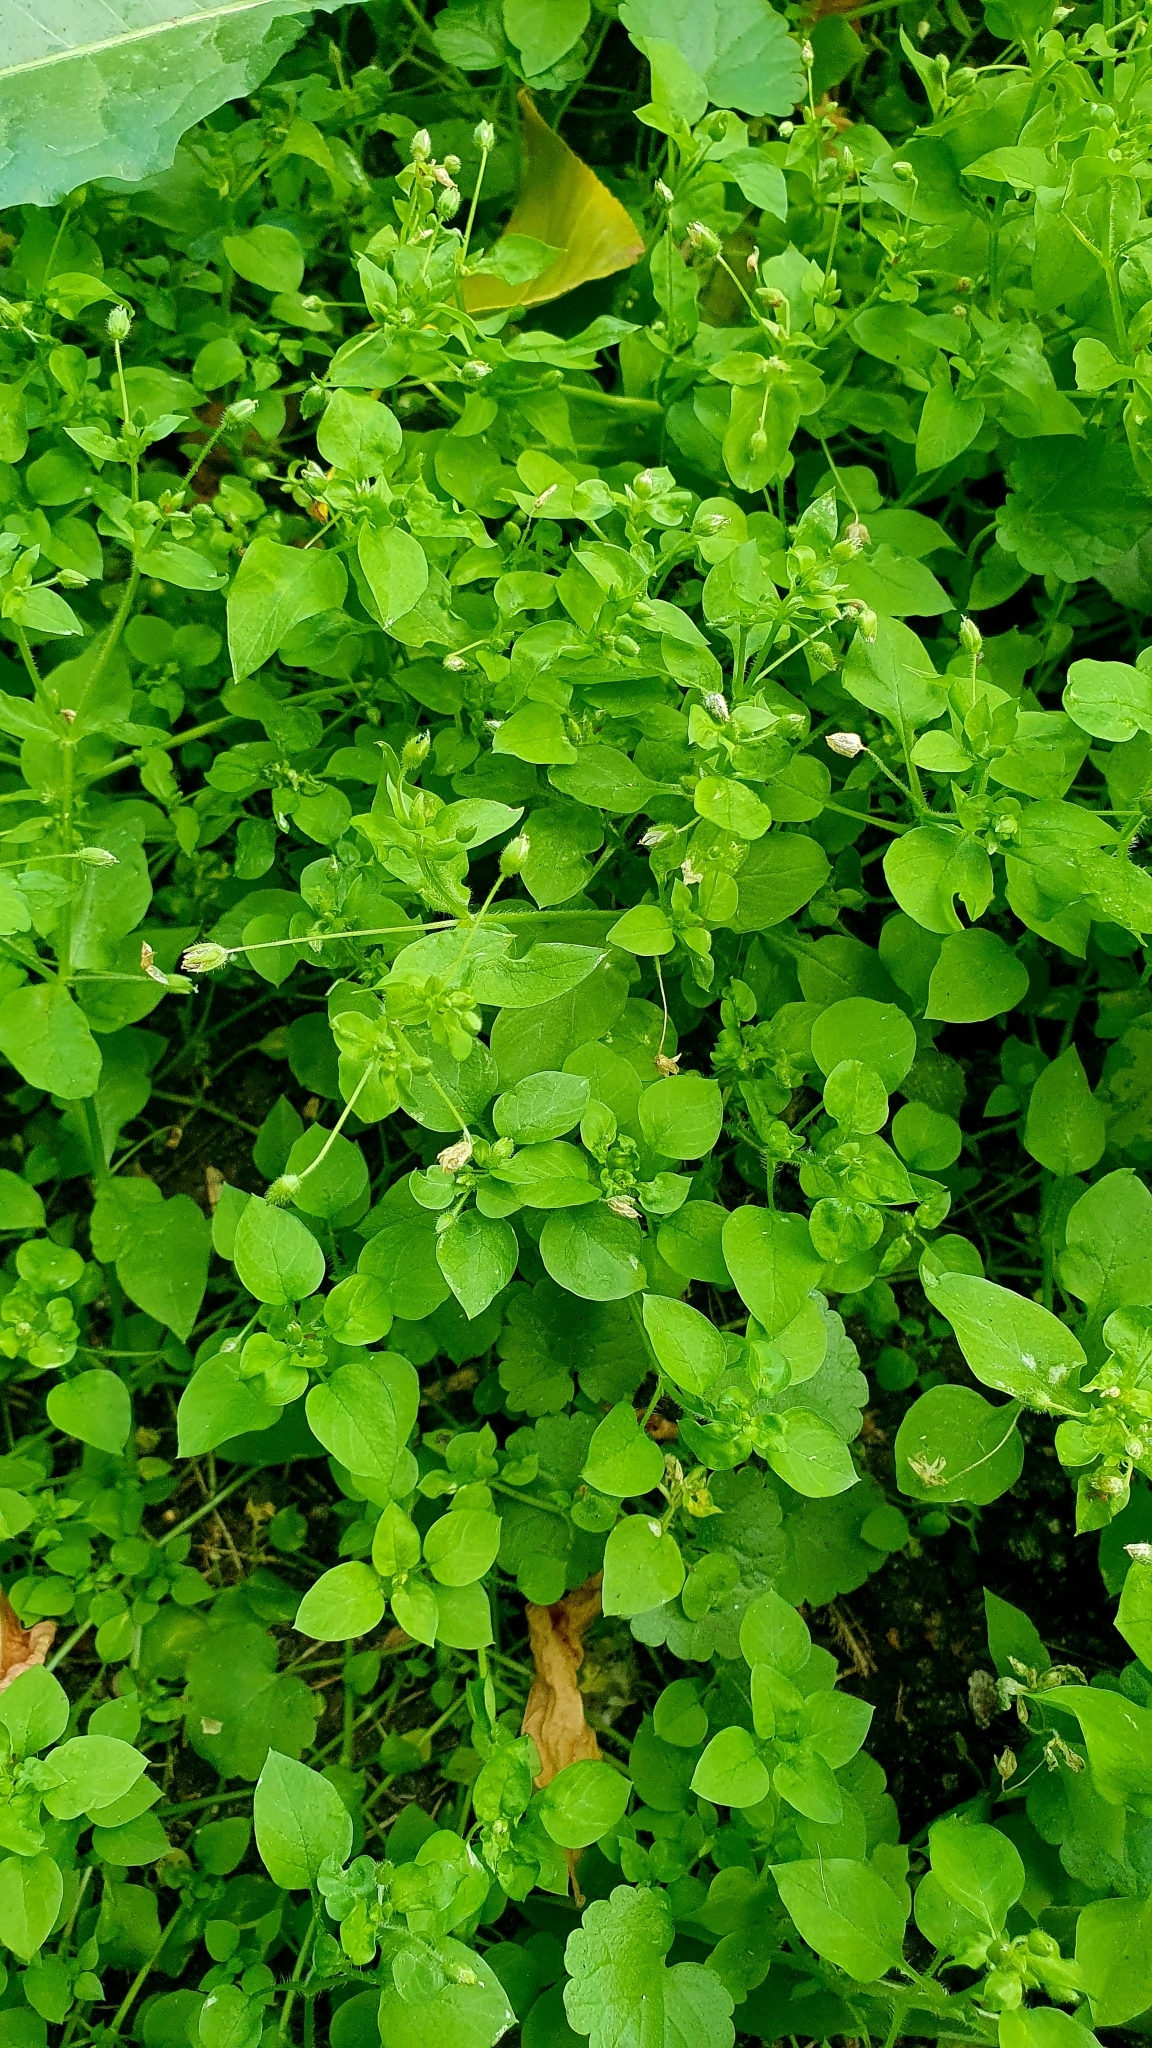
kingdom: Plantae
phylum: Tracheophyta
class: Magnoliopsida
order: Caryophyllales
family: Caryophyllaceae
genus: Stellaria
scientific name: Stellaria media
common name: Common chickweed
